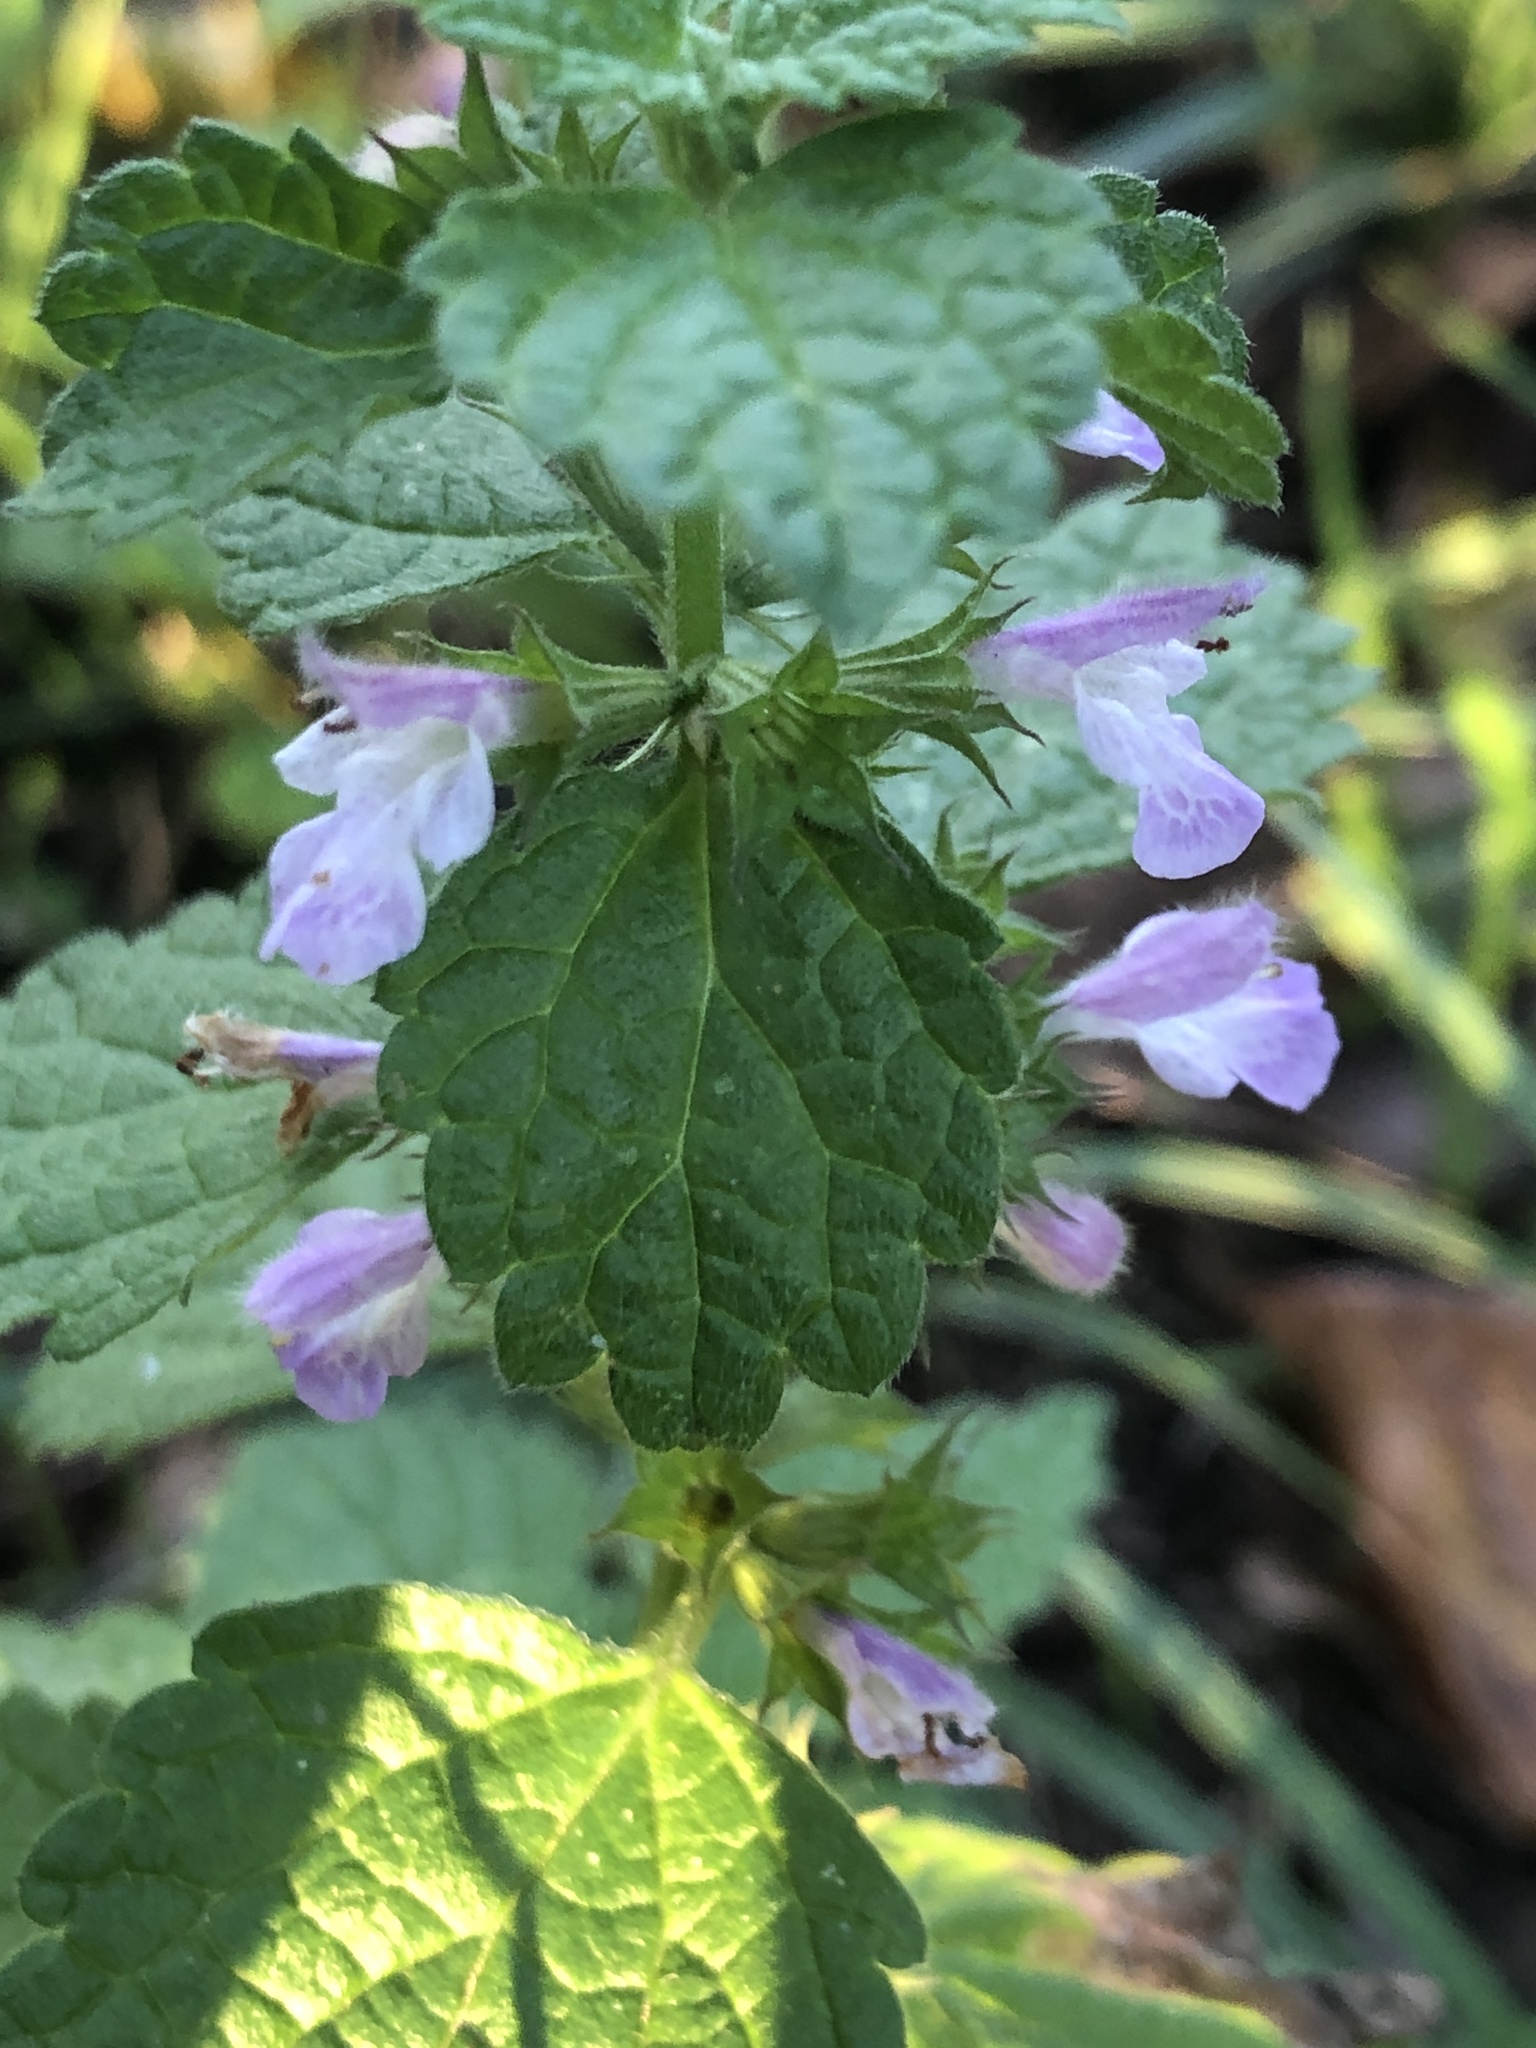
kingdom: Plantae
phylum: Tracheophyta
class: Magnoliopsida
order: Lamiales
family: Lamiaceae
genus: Ballota
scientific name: Ballota nigra
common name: Black horehound
